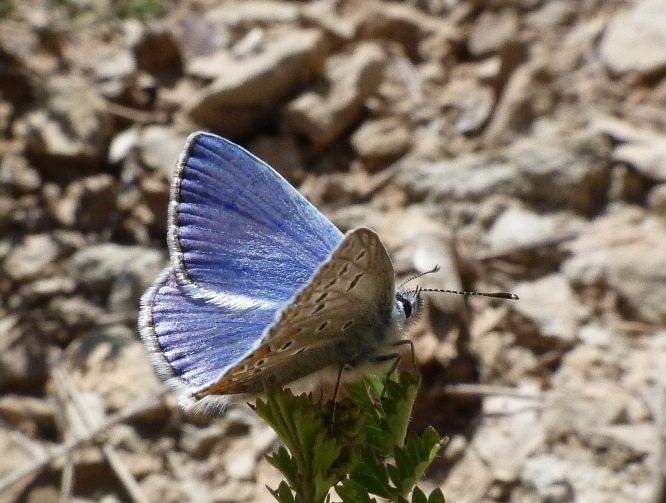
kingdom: Animalia
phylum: Arthropoda
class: Insecta
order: Lepidoptera
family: Lycaenidae
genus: Polyommatus
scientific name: Polyommatus thersites
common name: Chapman's blue
